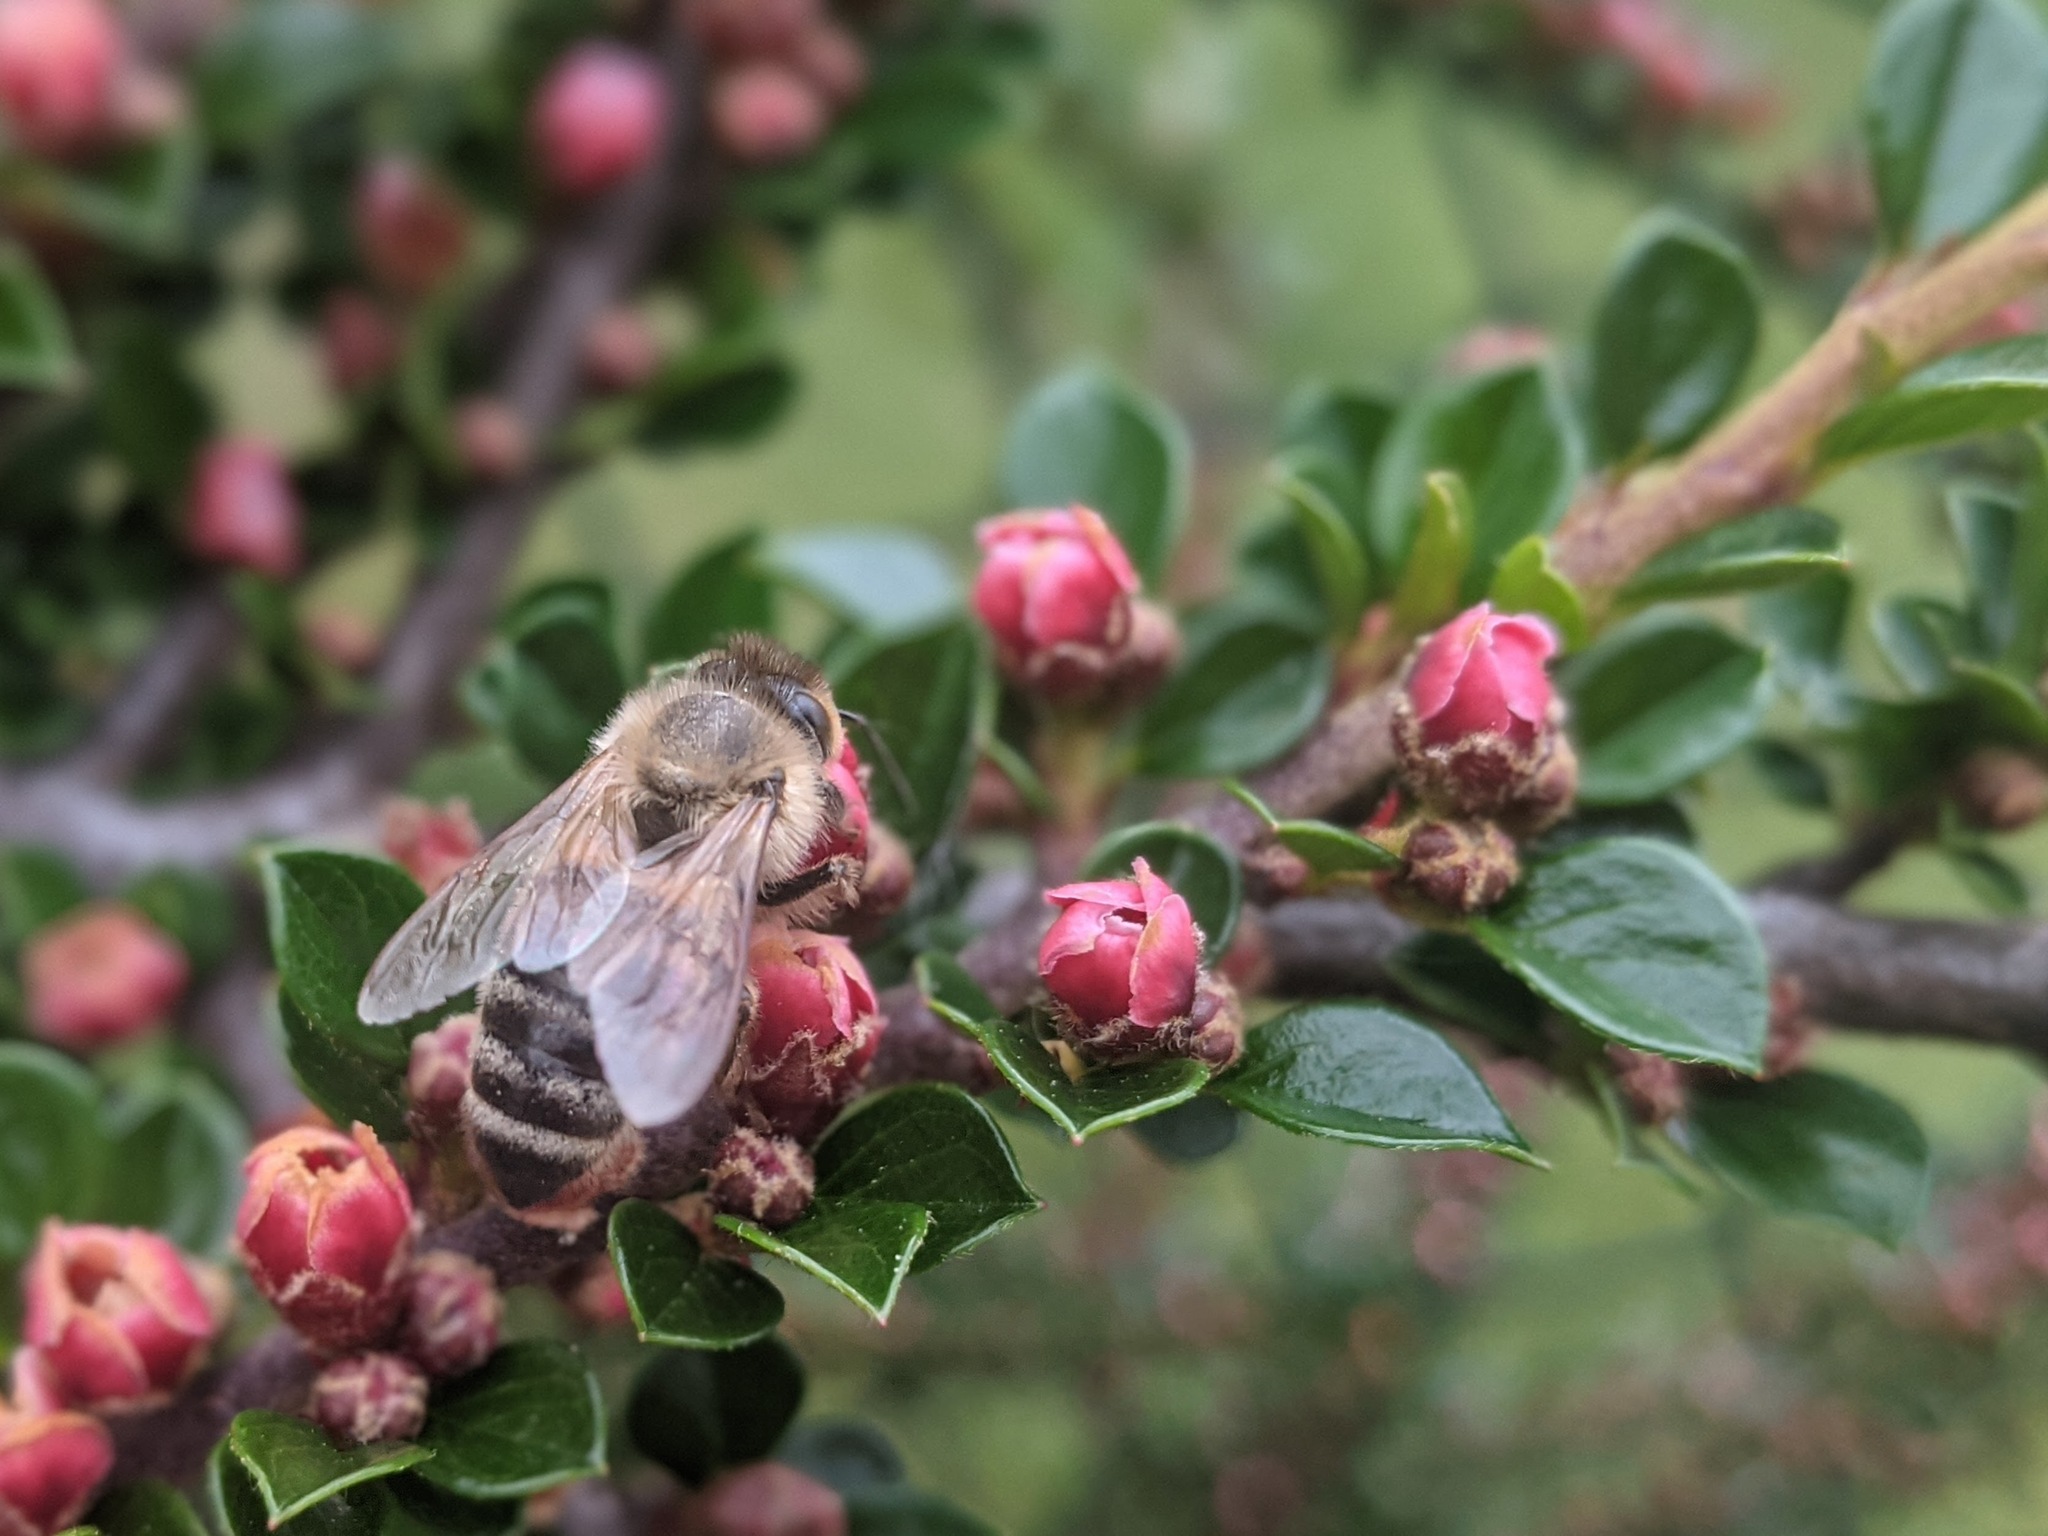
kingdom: Animalia
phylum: Arthropoda
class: Insecta
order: Hymenoptera
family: Apidae
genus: Apis
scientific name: Apis mellifera
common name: Honey bee
